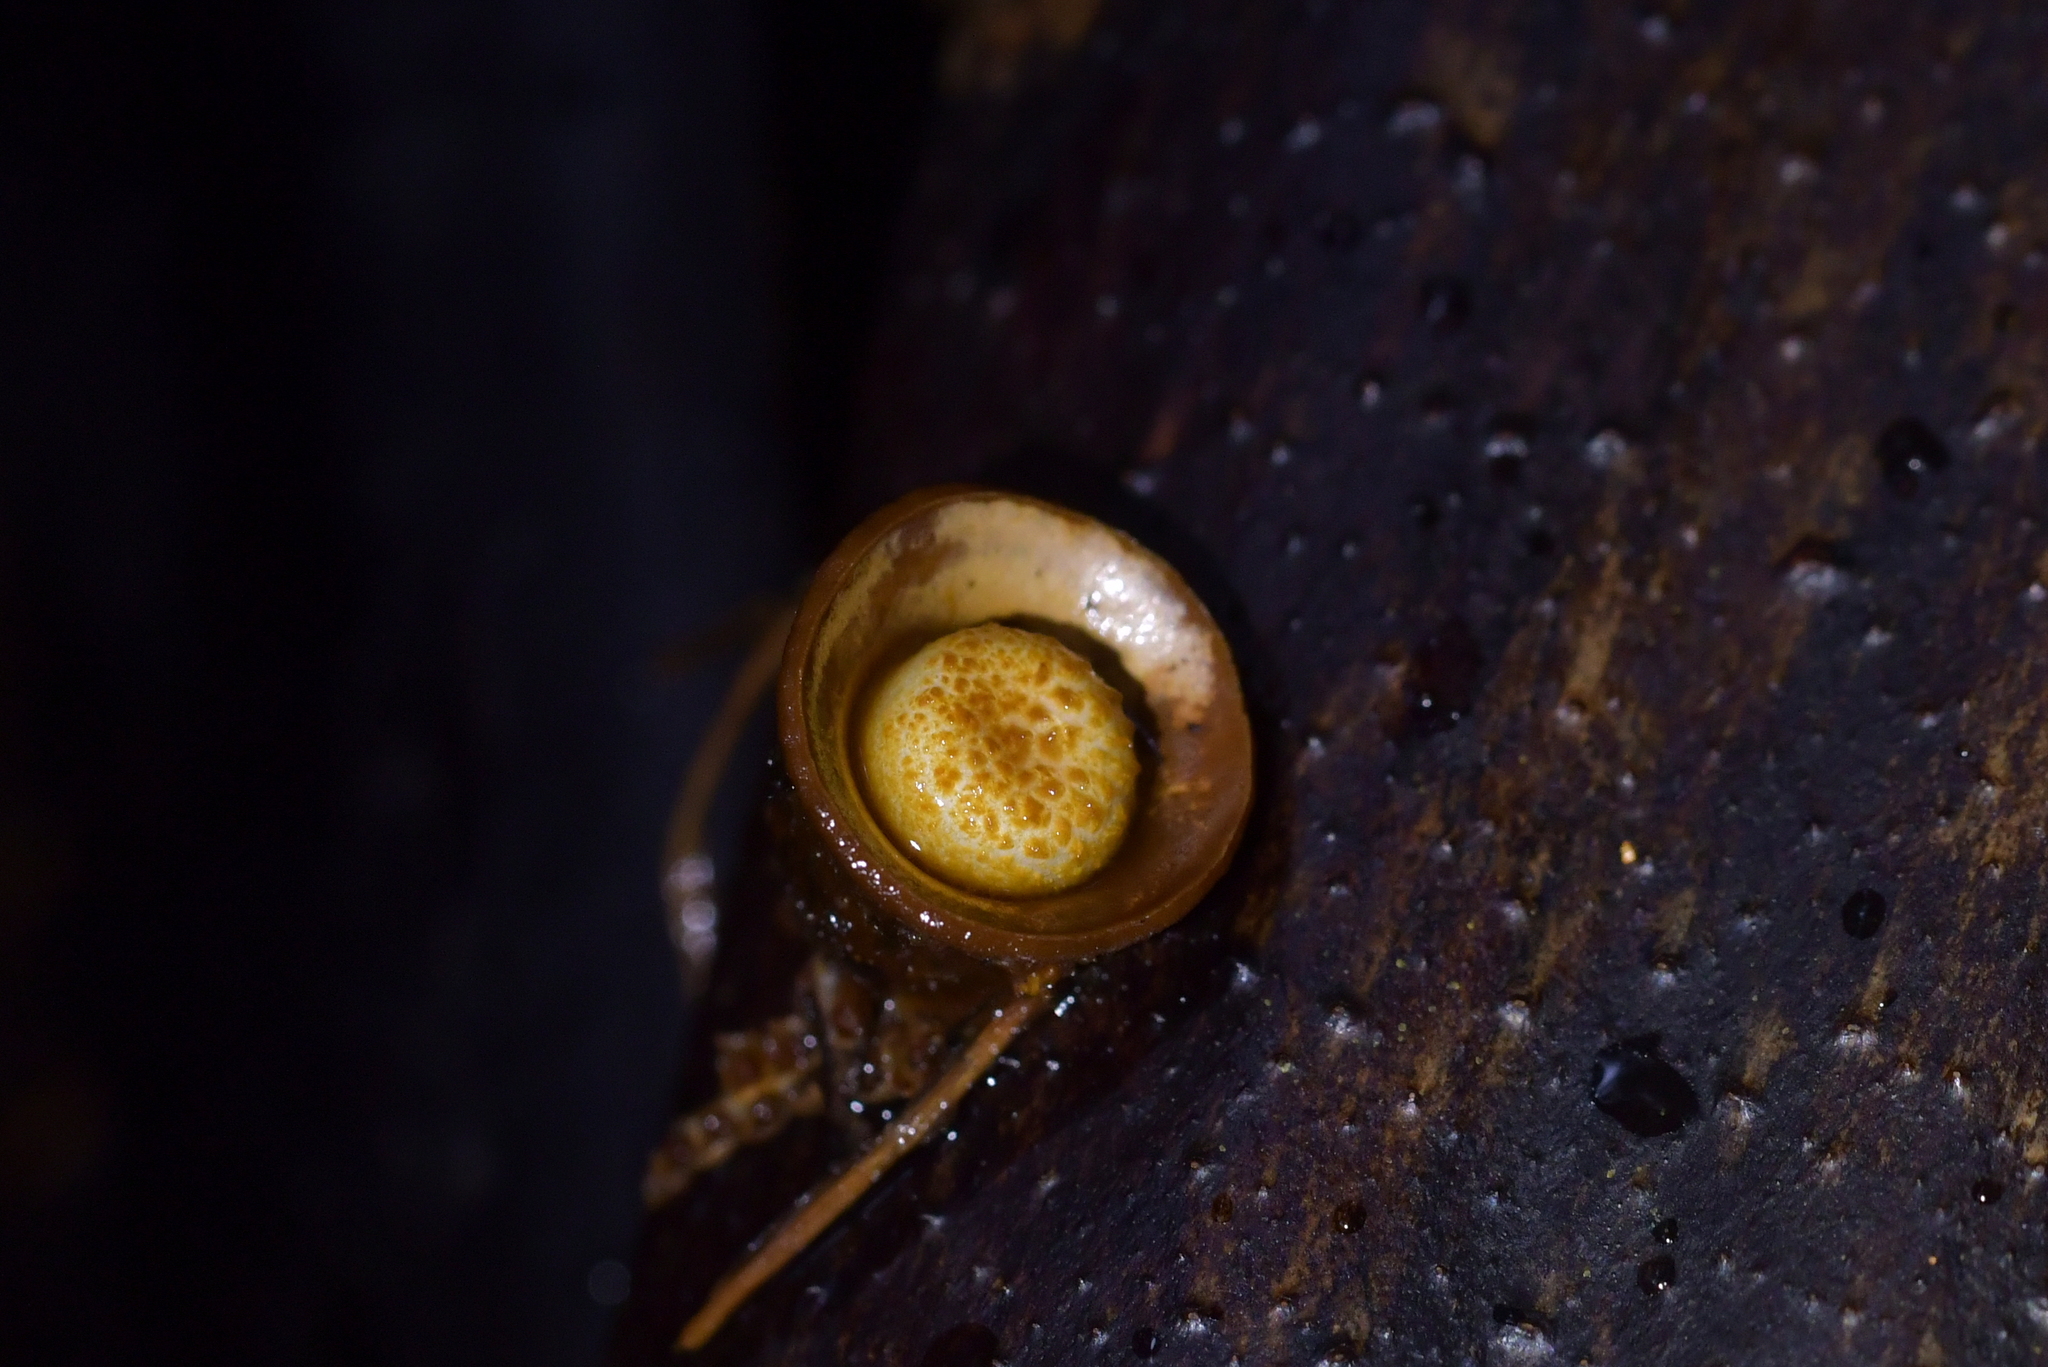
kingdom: Fungi
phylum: Basidiomycota
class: Agaricomycetes
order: Agaricales
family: Nidulariaceae
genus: Crucibulum
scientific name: Crucibulum simile
